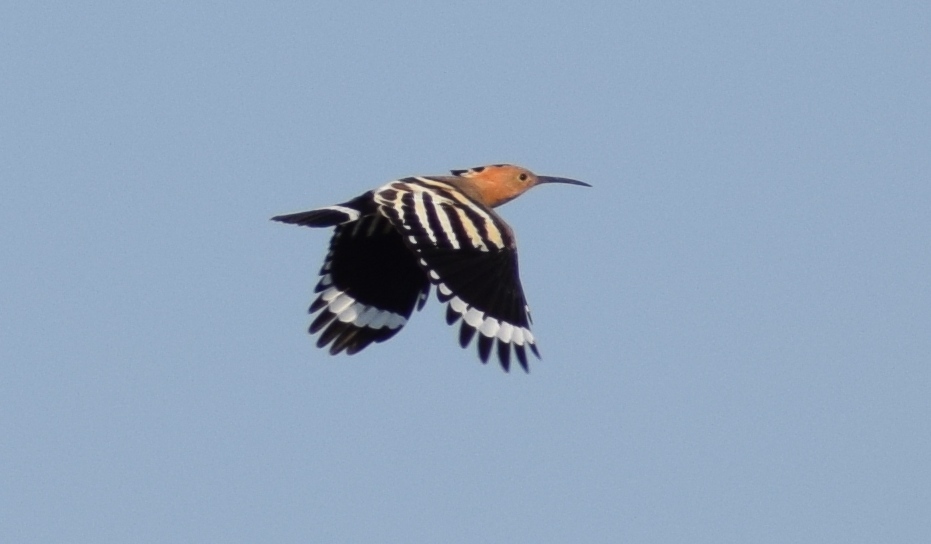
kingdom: Animalia
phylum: Chordata
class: Aves
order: Bucerotiformes
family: Upupidae
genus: Upupa
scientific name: Upupa epops
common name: Eurasian hoopoe
